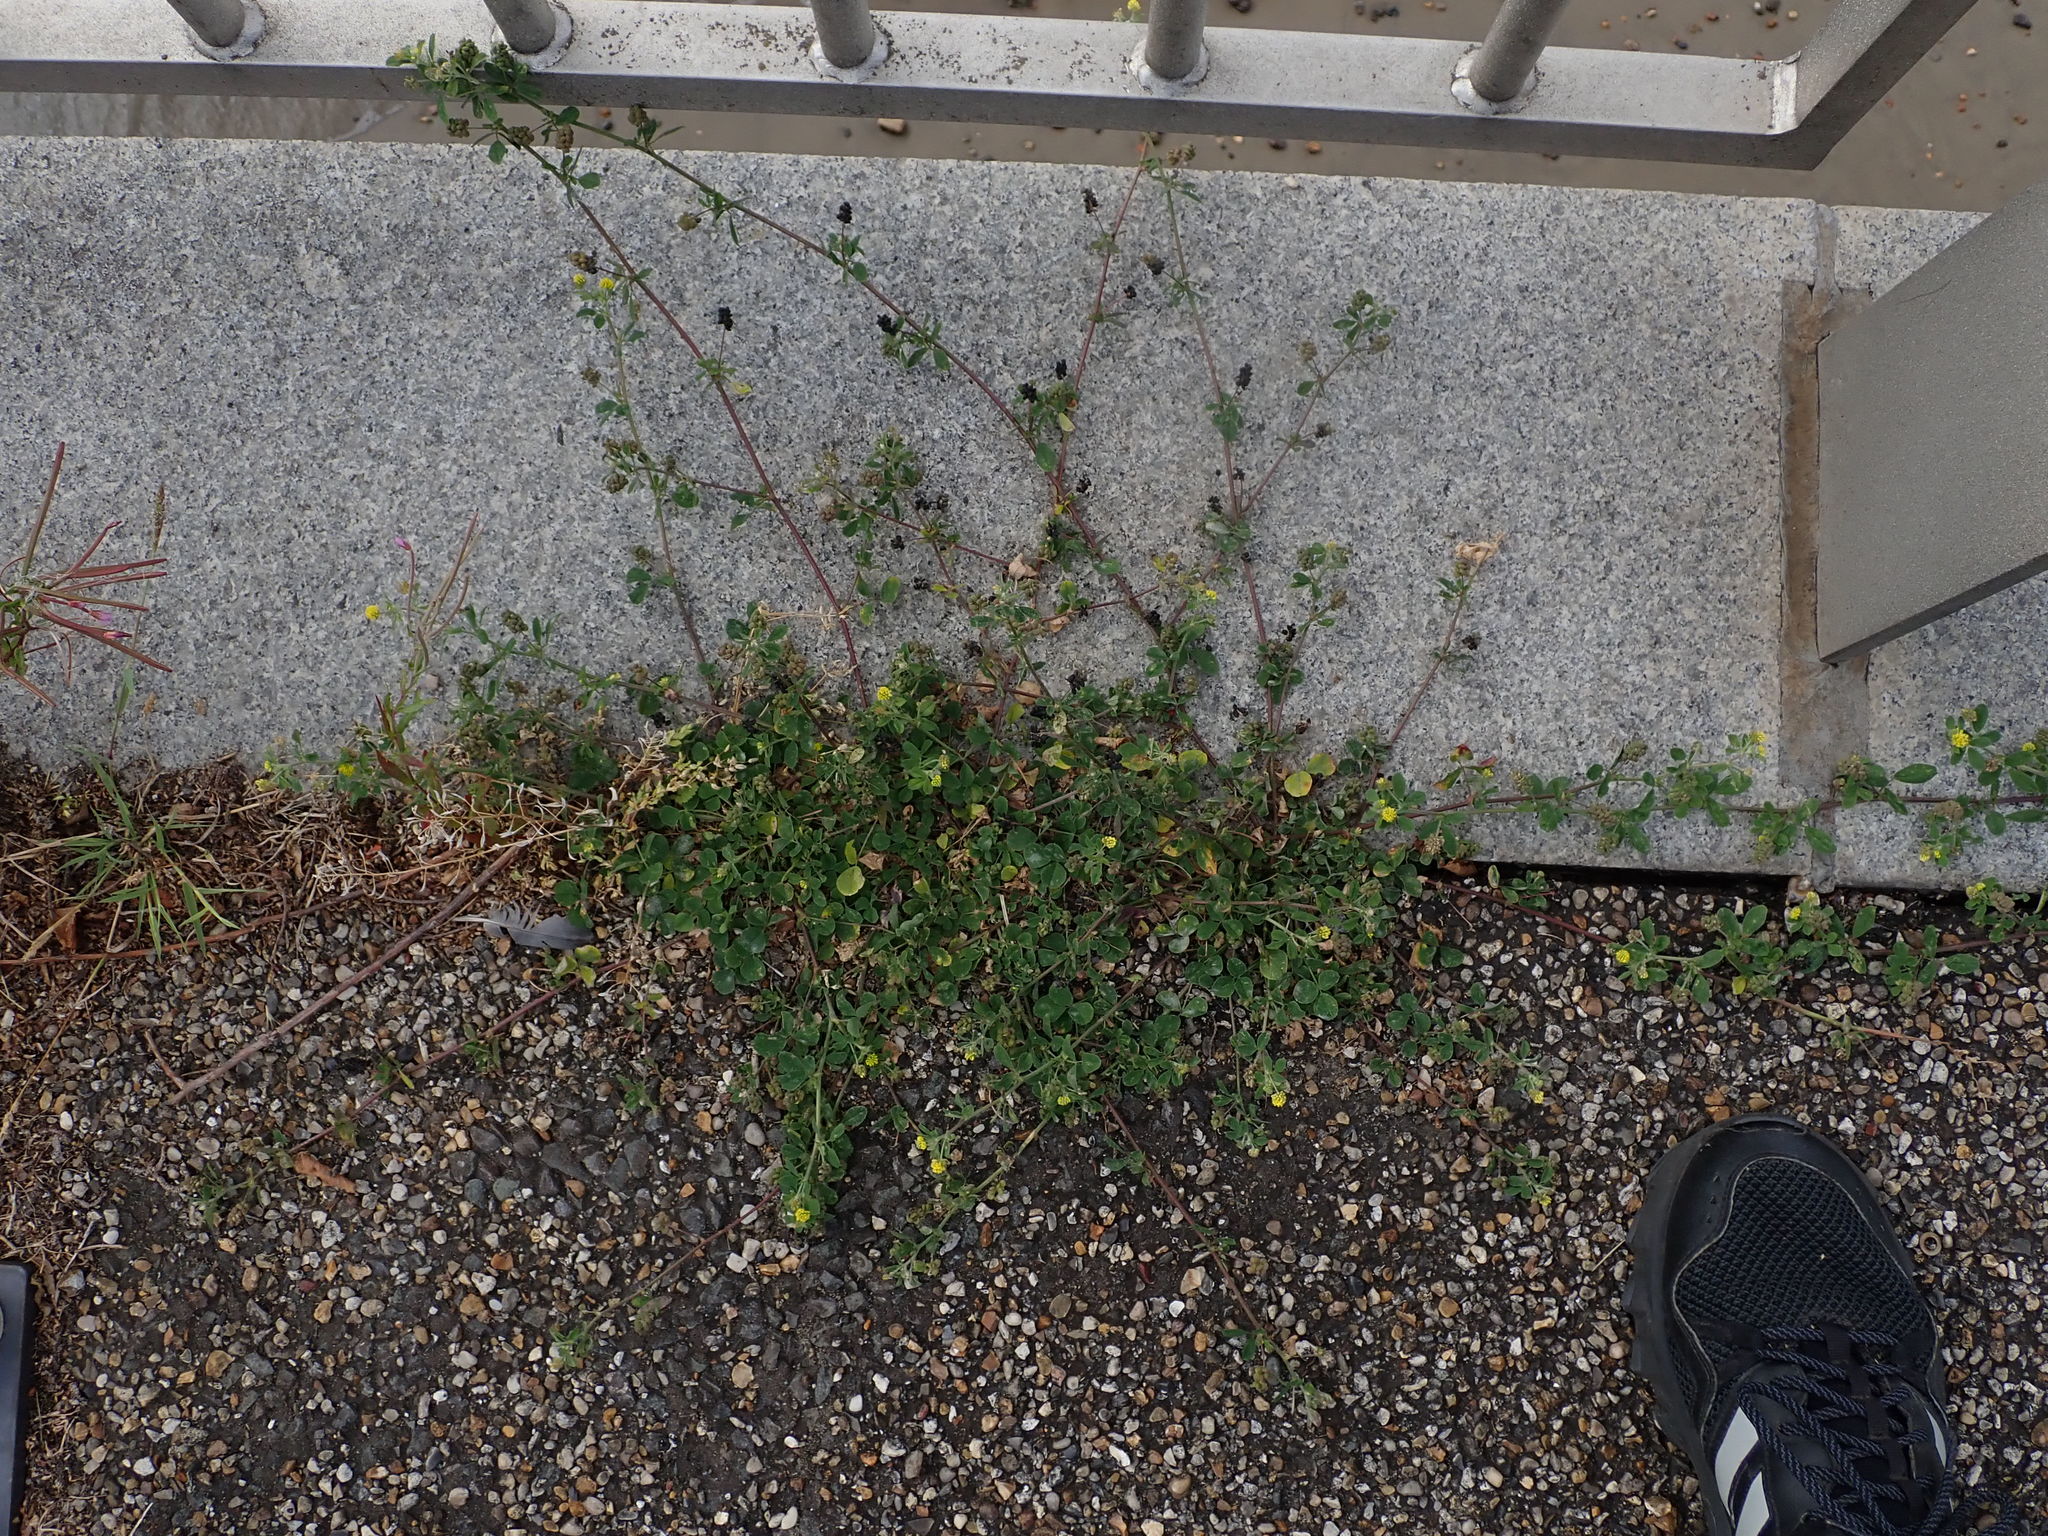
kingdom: Plantae
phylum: Tracheophyta
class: Magnoliopsida
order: Fabales
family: Fabaceae
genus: Medicago
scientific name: Medicago lupulina
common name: Black medick
